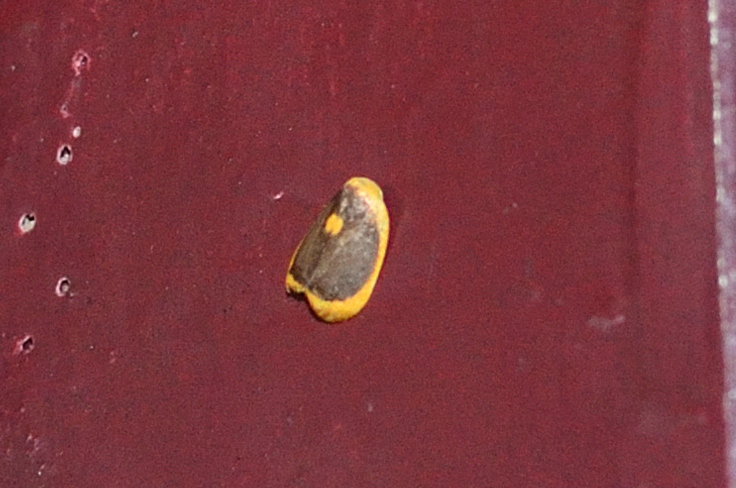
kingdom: Animalia
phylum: Arthropoda
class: Insecta
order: Lepidoptera
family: Erebidae
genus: Cyclosiella
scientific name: Cyclosiella dulcicula
